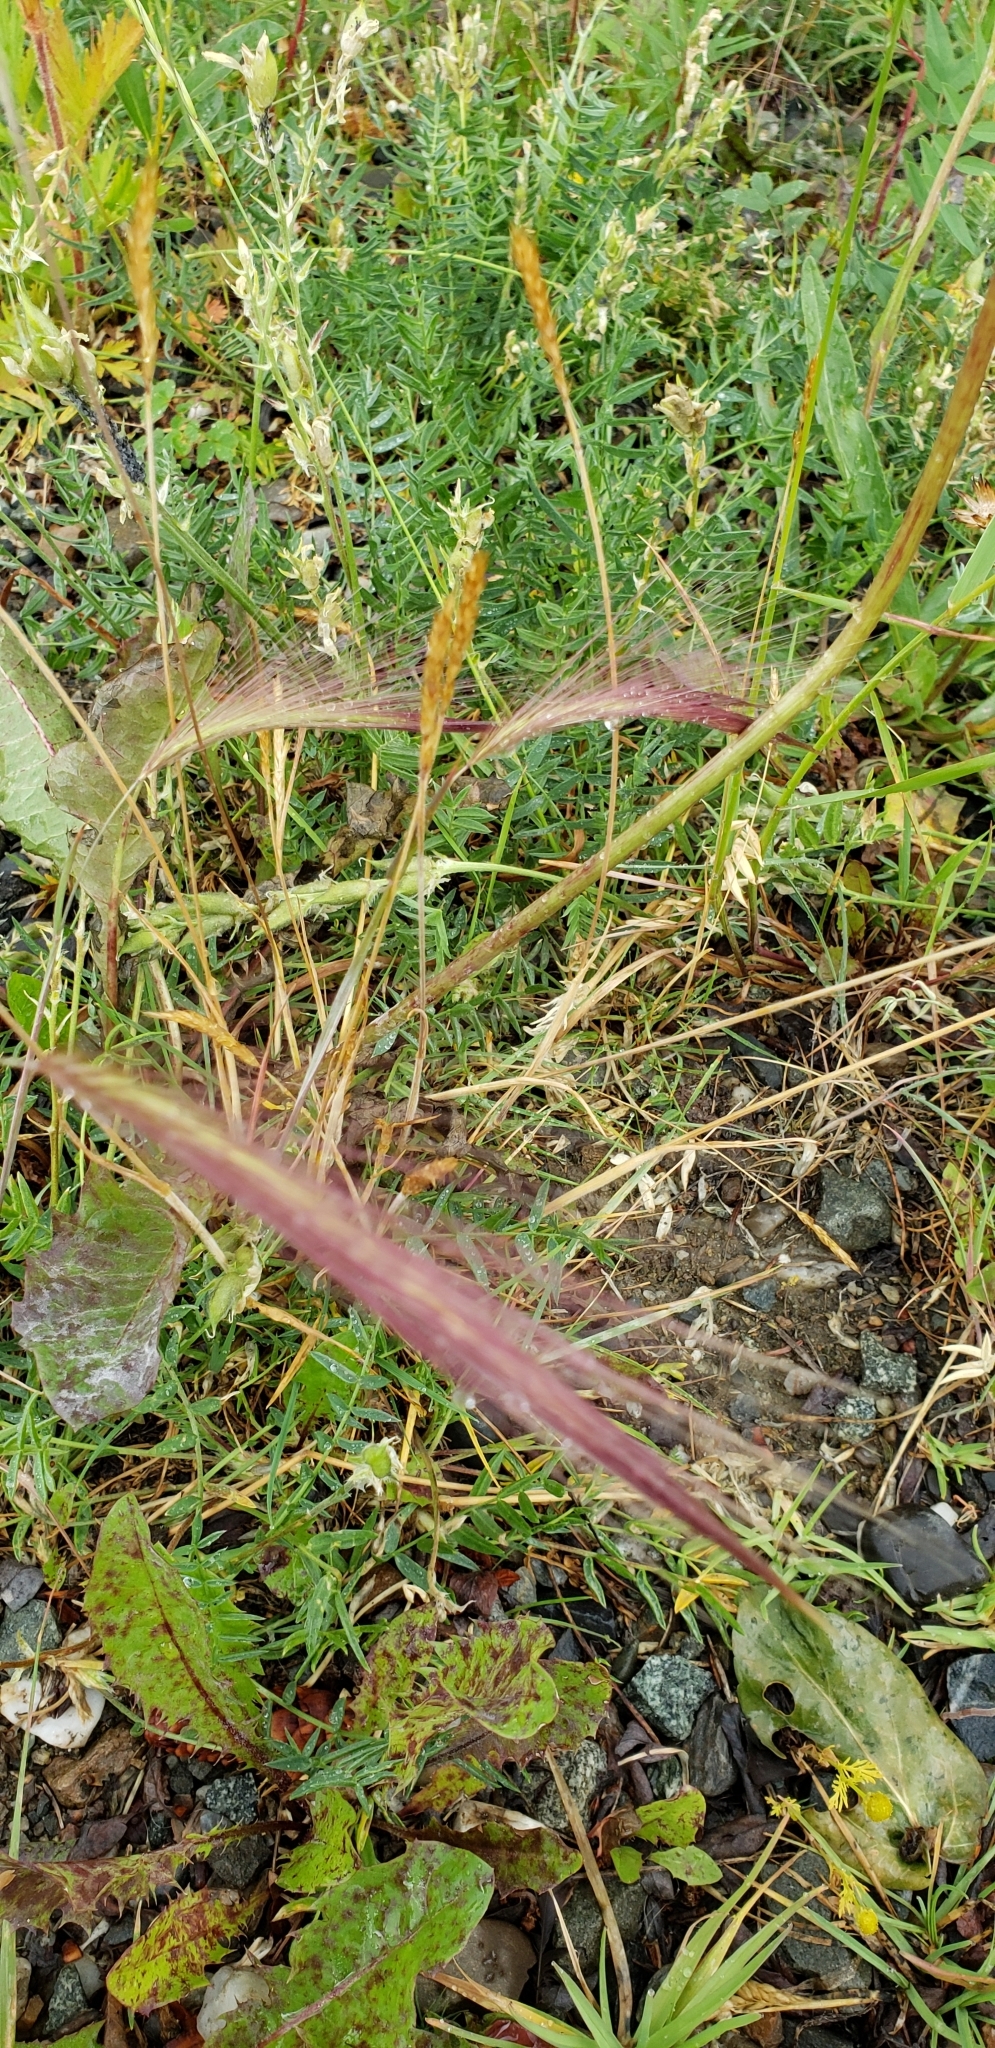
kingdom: Plantae
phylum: Tracheophyta
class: Liliopsida
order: Poales
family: Poaceae
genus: Hordeum
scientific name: Hordeum jubatum
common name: Foxtail barley
